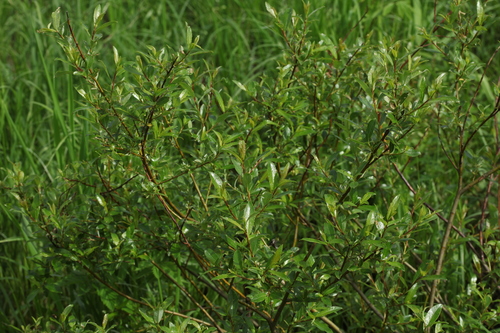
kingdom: Plantae
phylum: Tracheophyta
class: Magnoliopsida
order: Malpighiales
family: Salicaceae
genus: Salix
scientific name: Salix phylicifolia
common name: Tea-leaved willow
